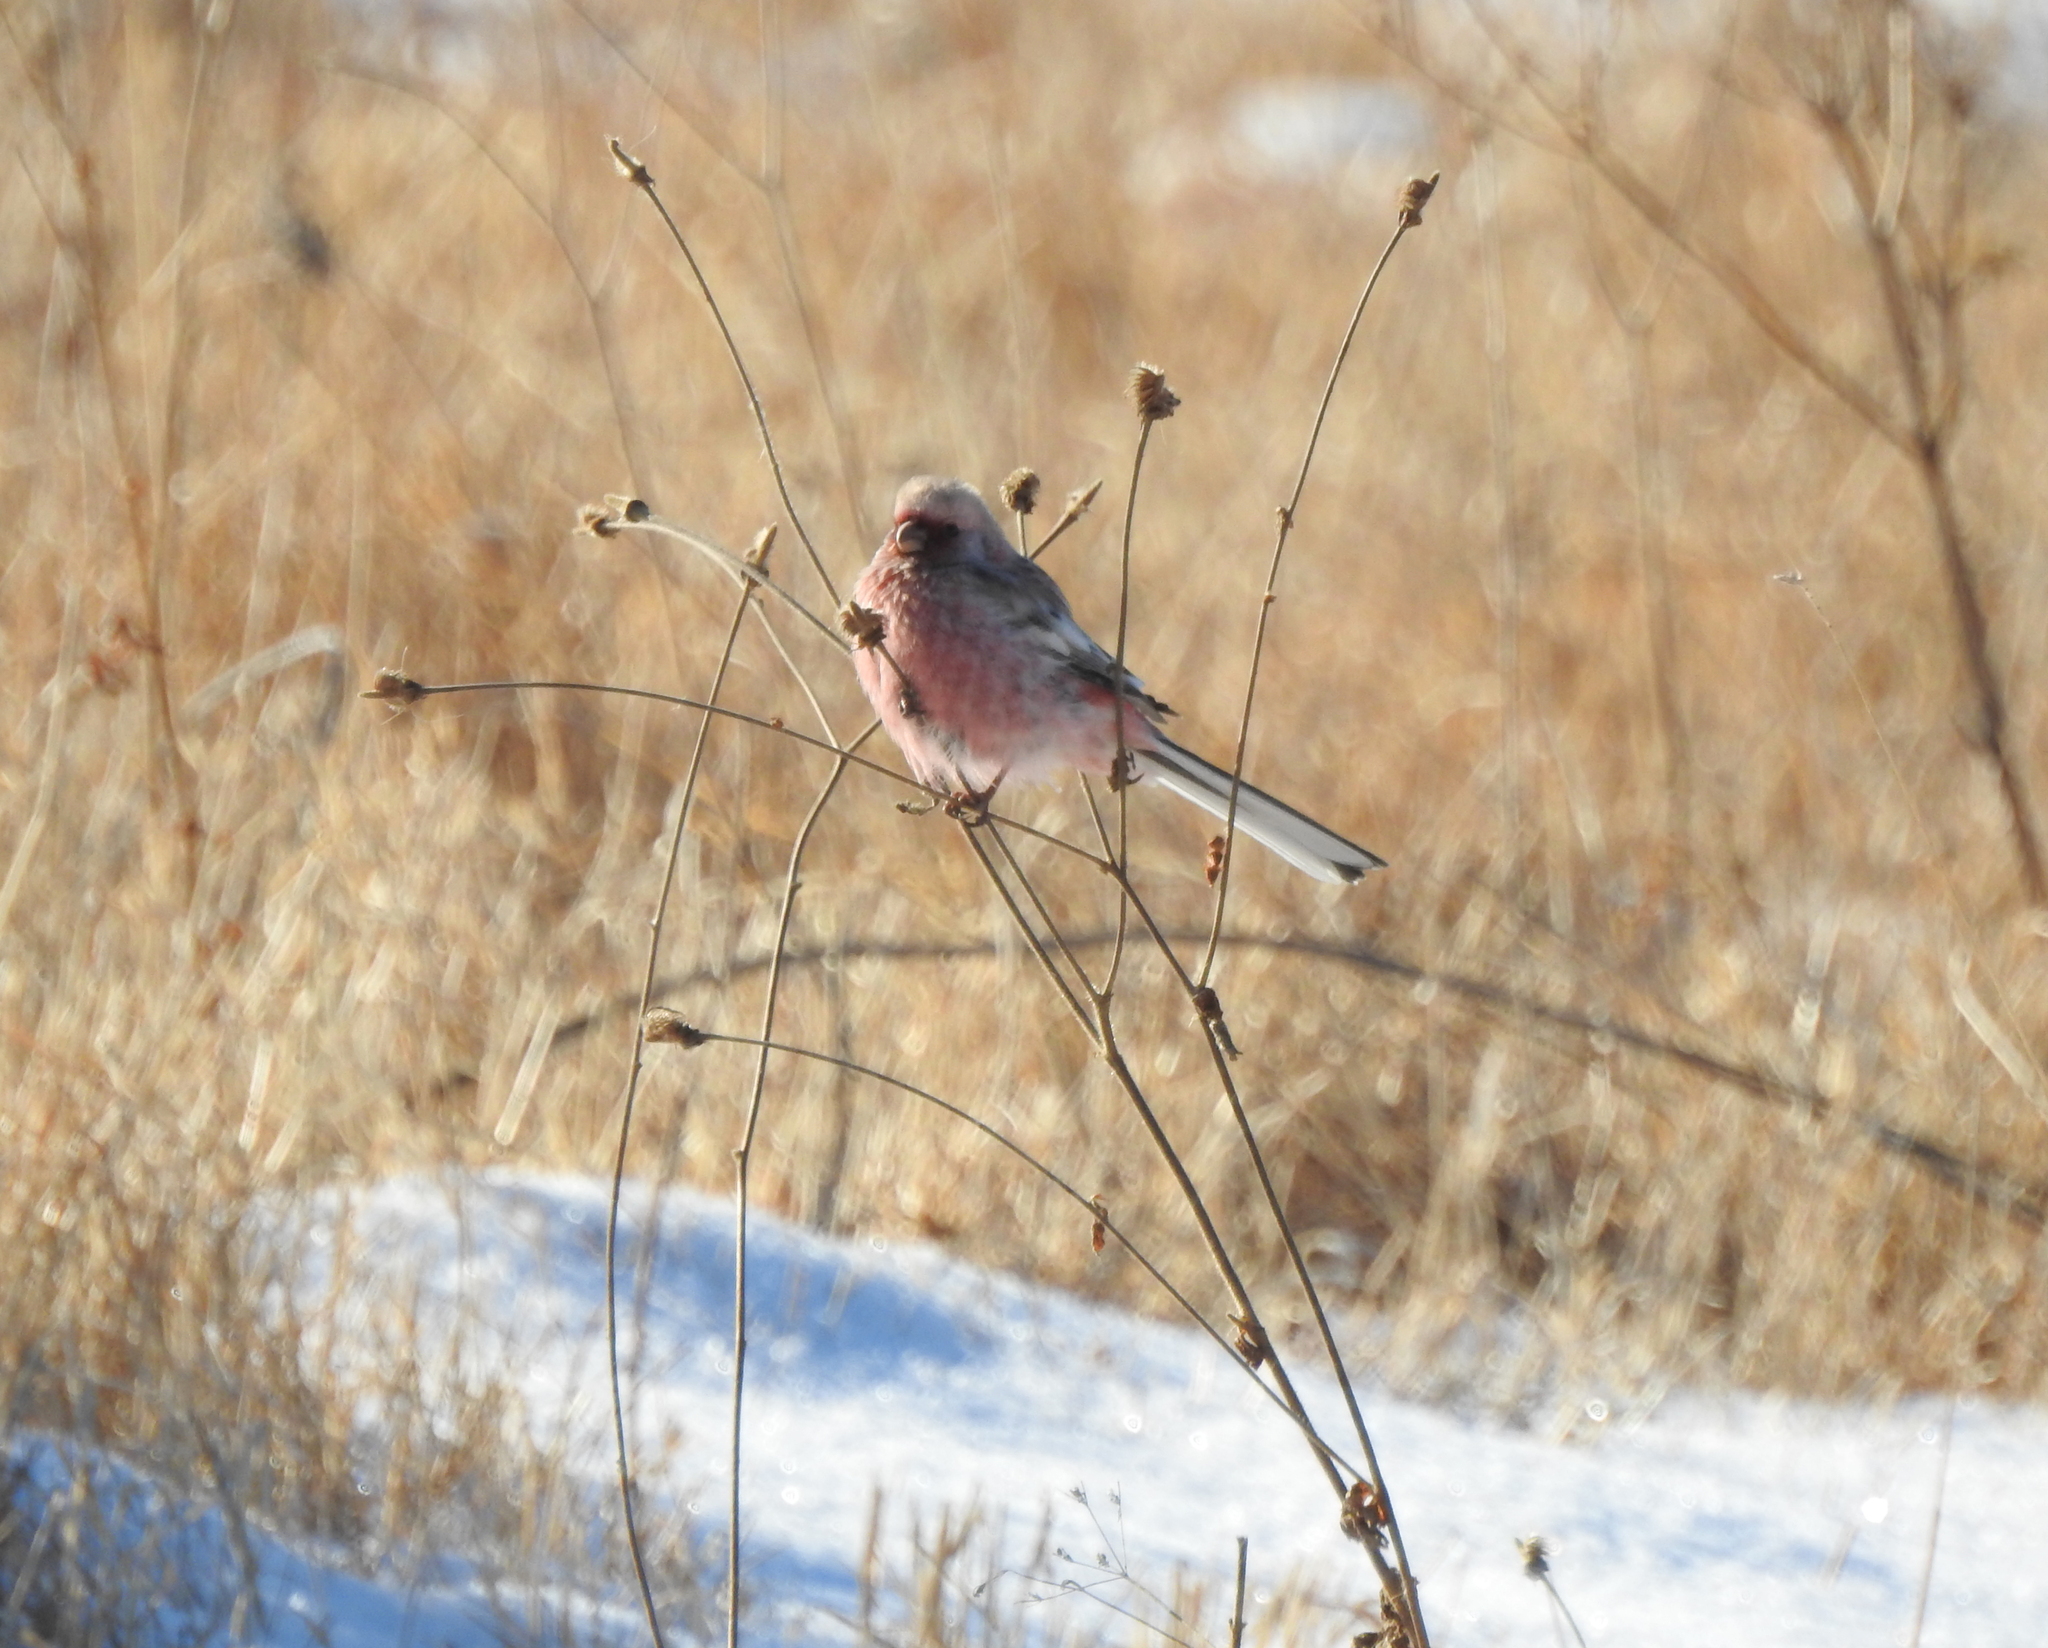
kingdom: Animalia
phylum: Chordata
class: Aves
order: Passeriformes
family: Fringillidae
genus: Carpodacus
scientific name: Carpodacus sibiricus
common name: Long-tailed rosefinch
